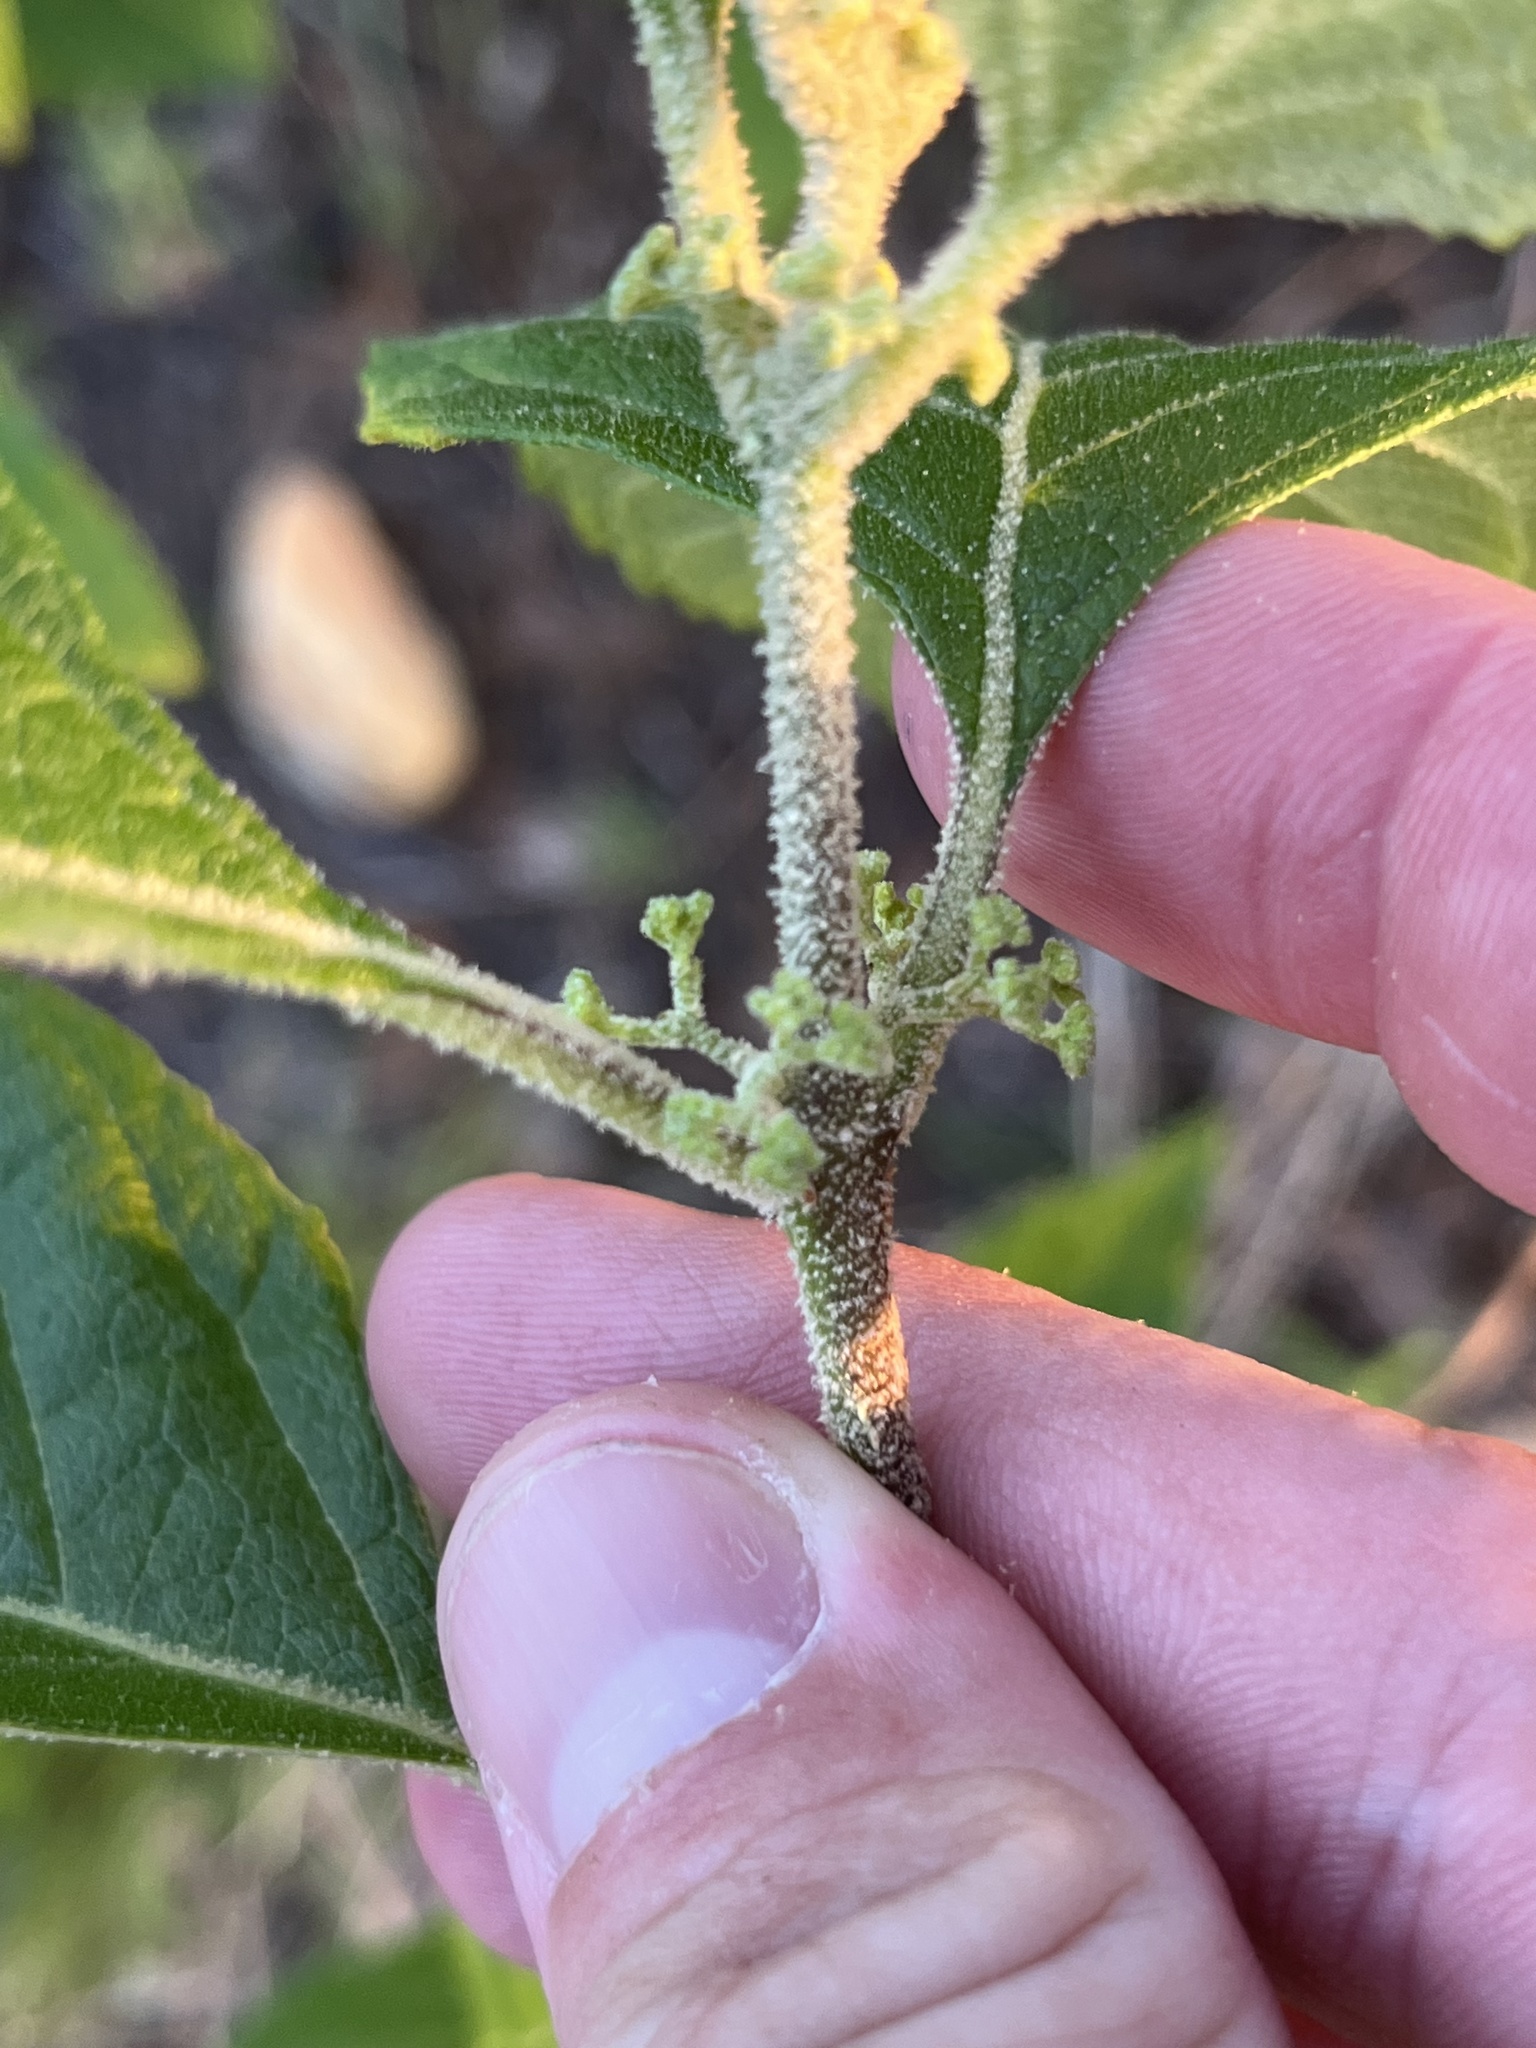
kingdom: Plantae
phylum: Tracheophyta
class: Magnoliopsida
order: Lamiales
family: Lamiaceae
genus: Callicarpa
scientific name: Callicarpa americana
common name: American beautyberry
